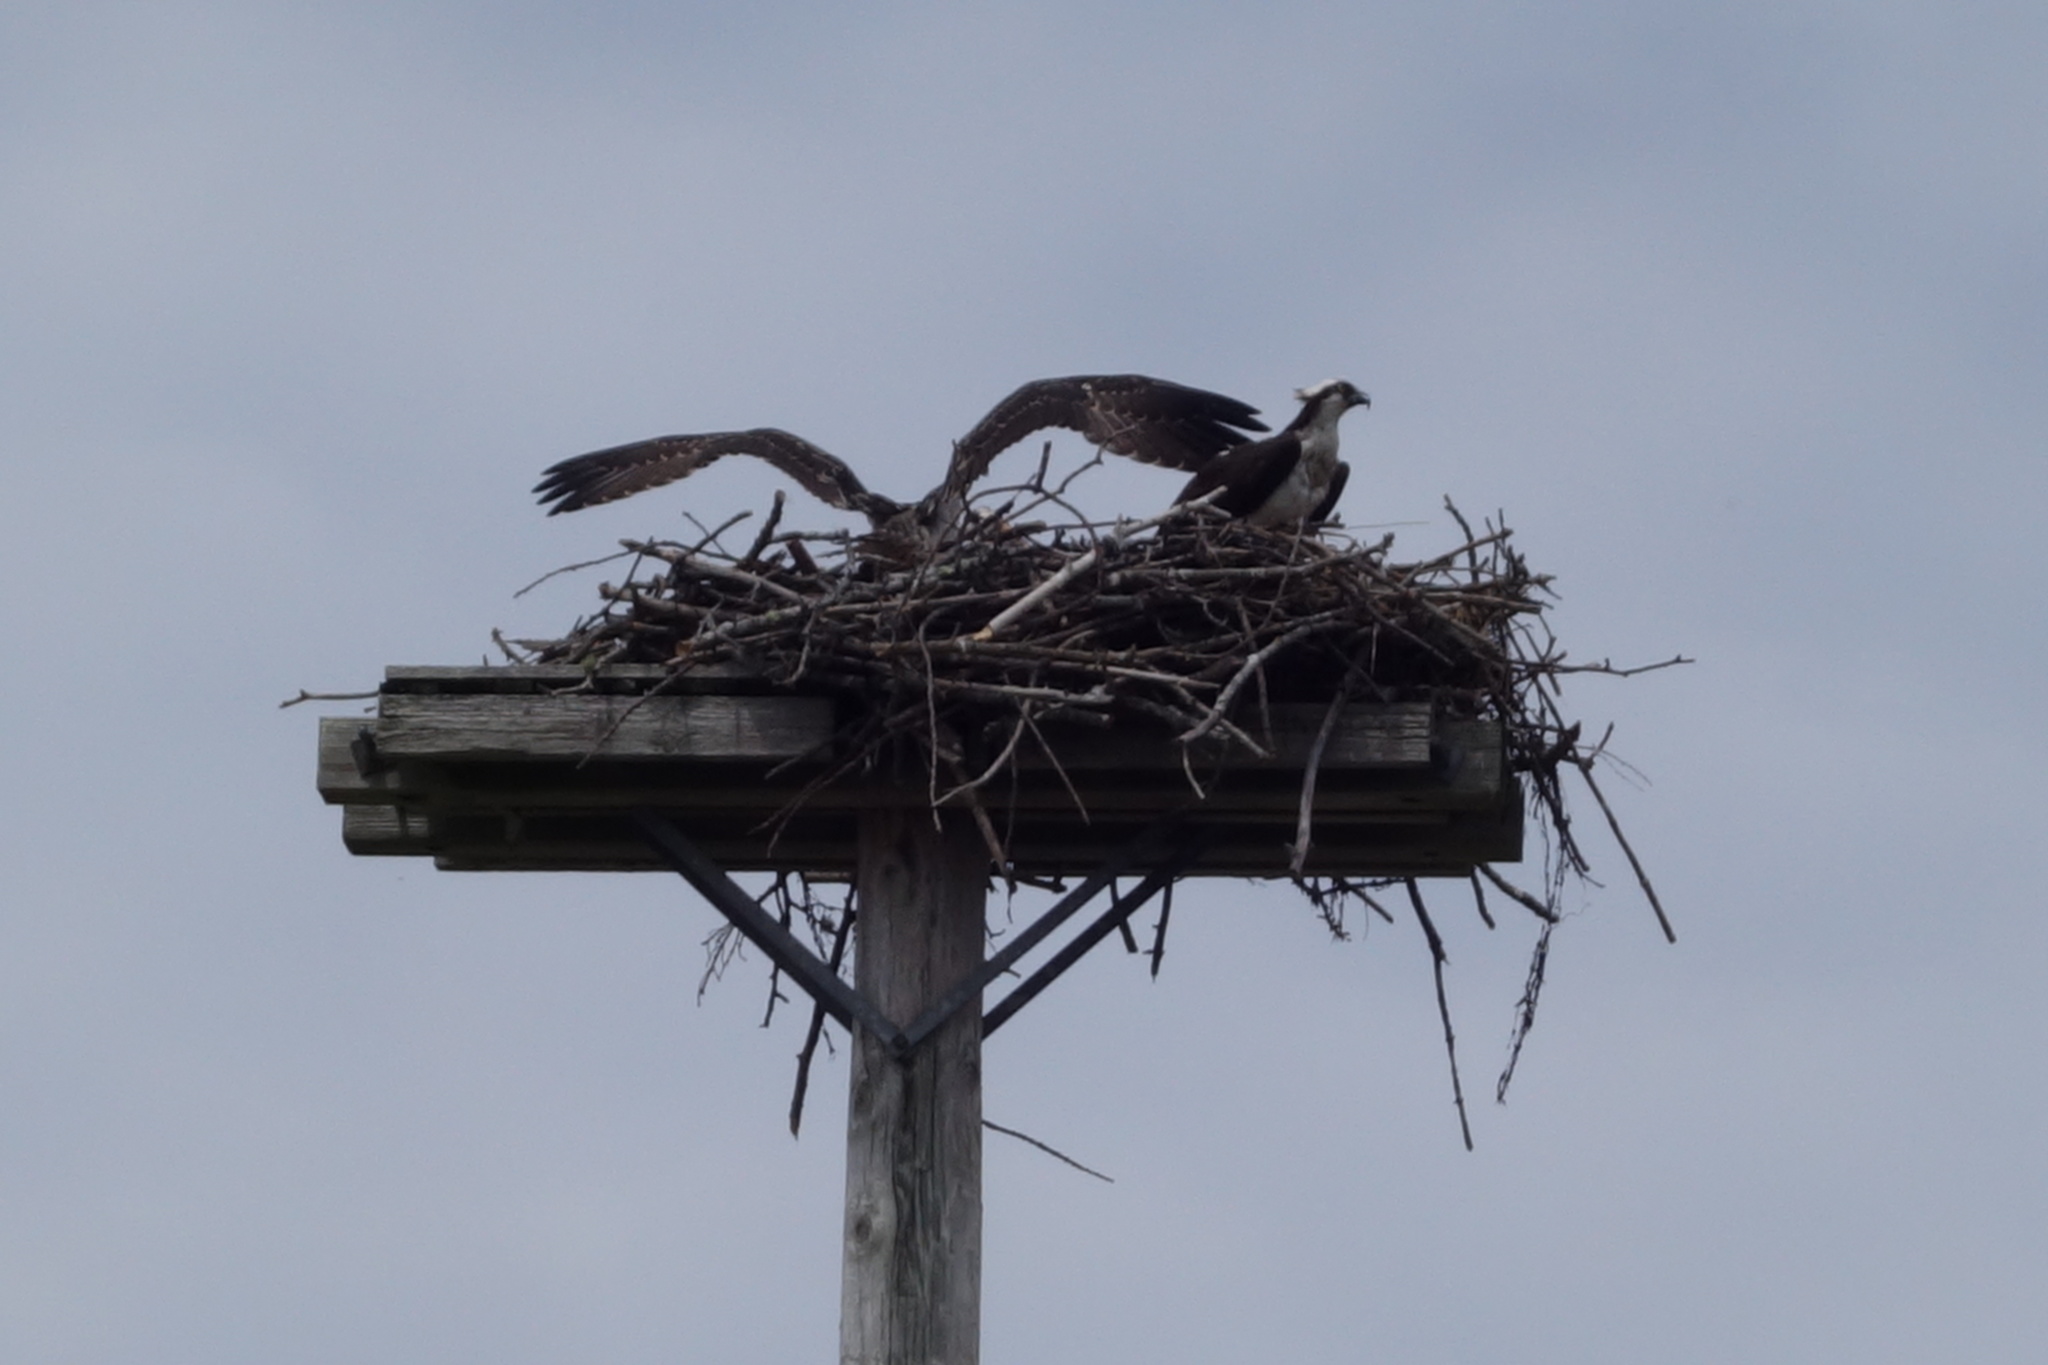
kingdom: Animalia
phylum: Chordata
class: Aves
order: Accipitriformes
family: Pandionidae
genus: Pandion
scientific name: Pandion haliaetus
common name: Osprey
